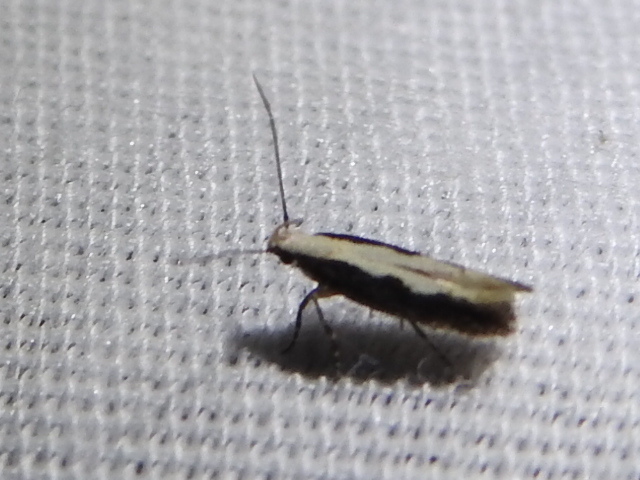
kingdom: Animalia
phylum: Arthropoda
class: Insecta
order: Lepidoptera
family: Gelechiidae
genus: Aristotelia
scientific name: Aristotelia corallina
